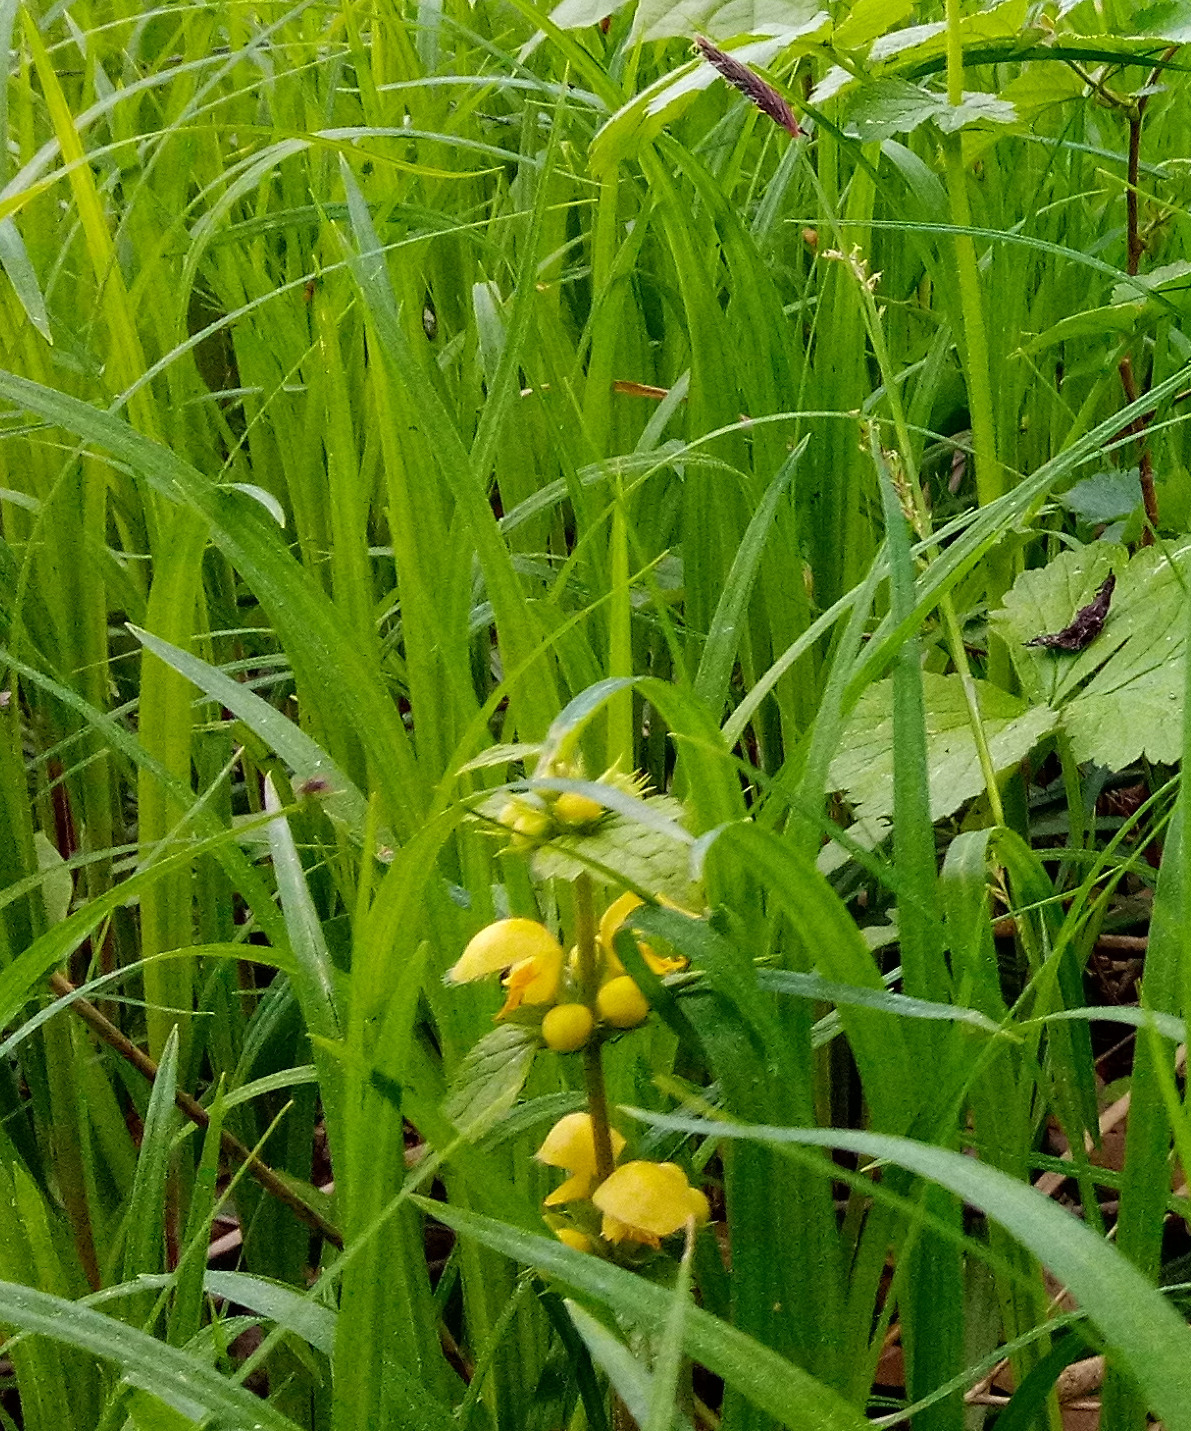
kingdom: Plantae
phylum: Tracheophyta
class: Magnoliopsida
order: Lamiales
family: Lamiaceae
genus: Lamium
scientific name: Lamium galeobdolon
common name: Yellow archangel
